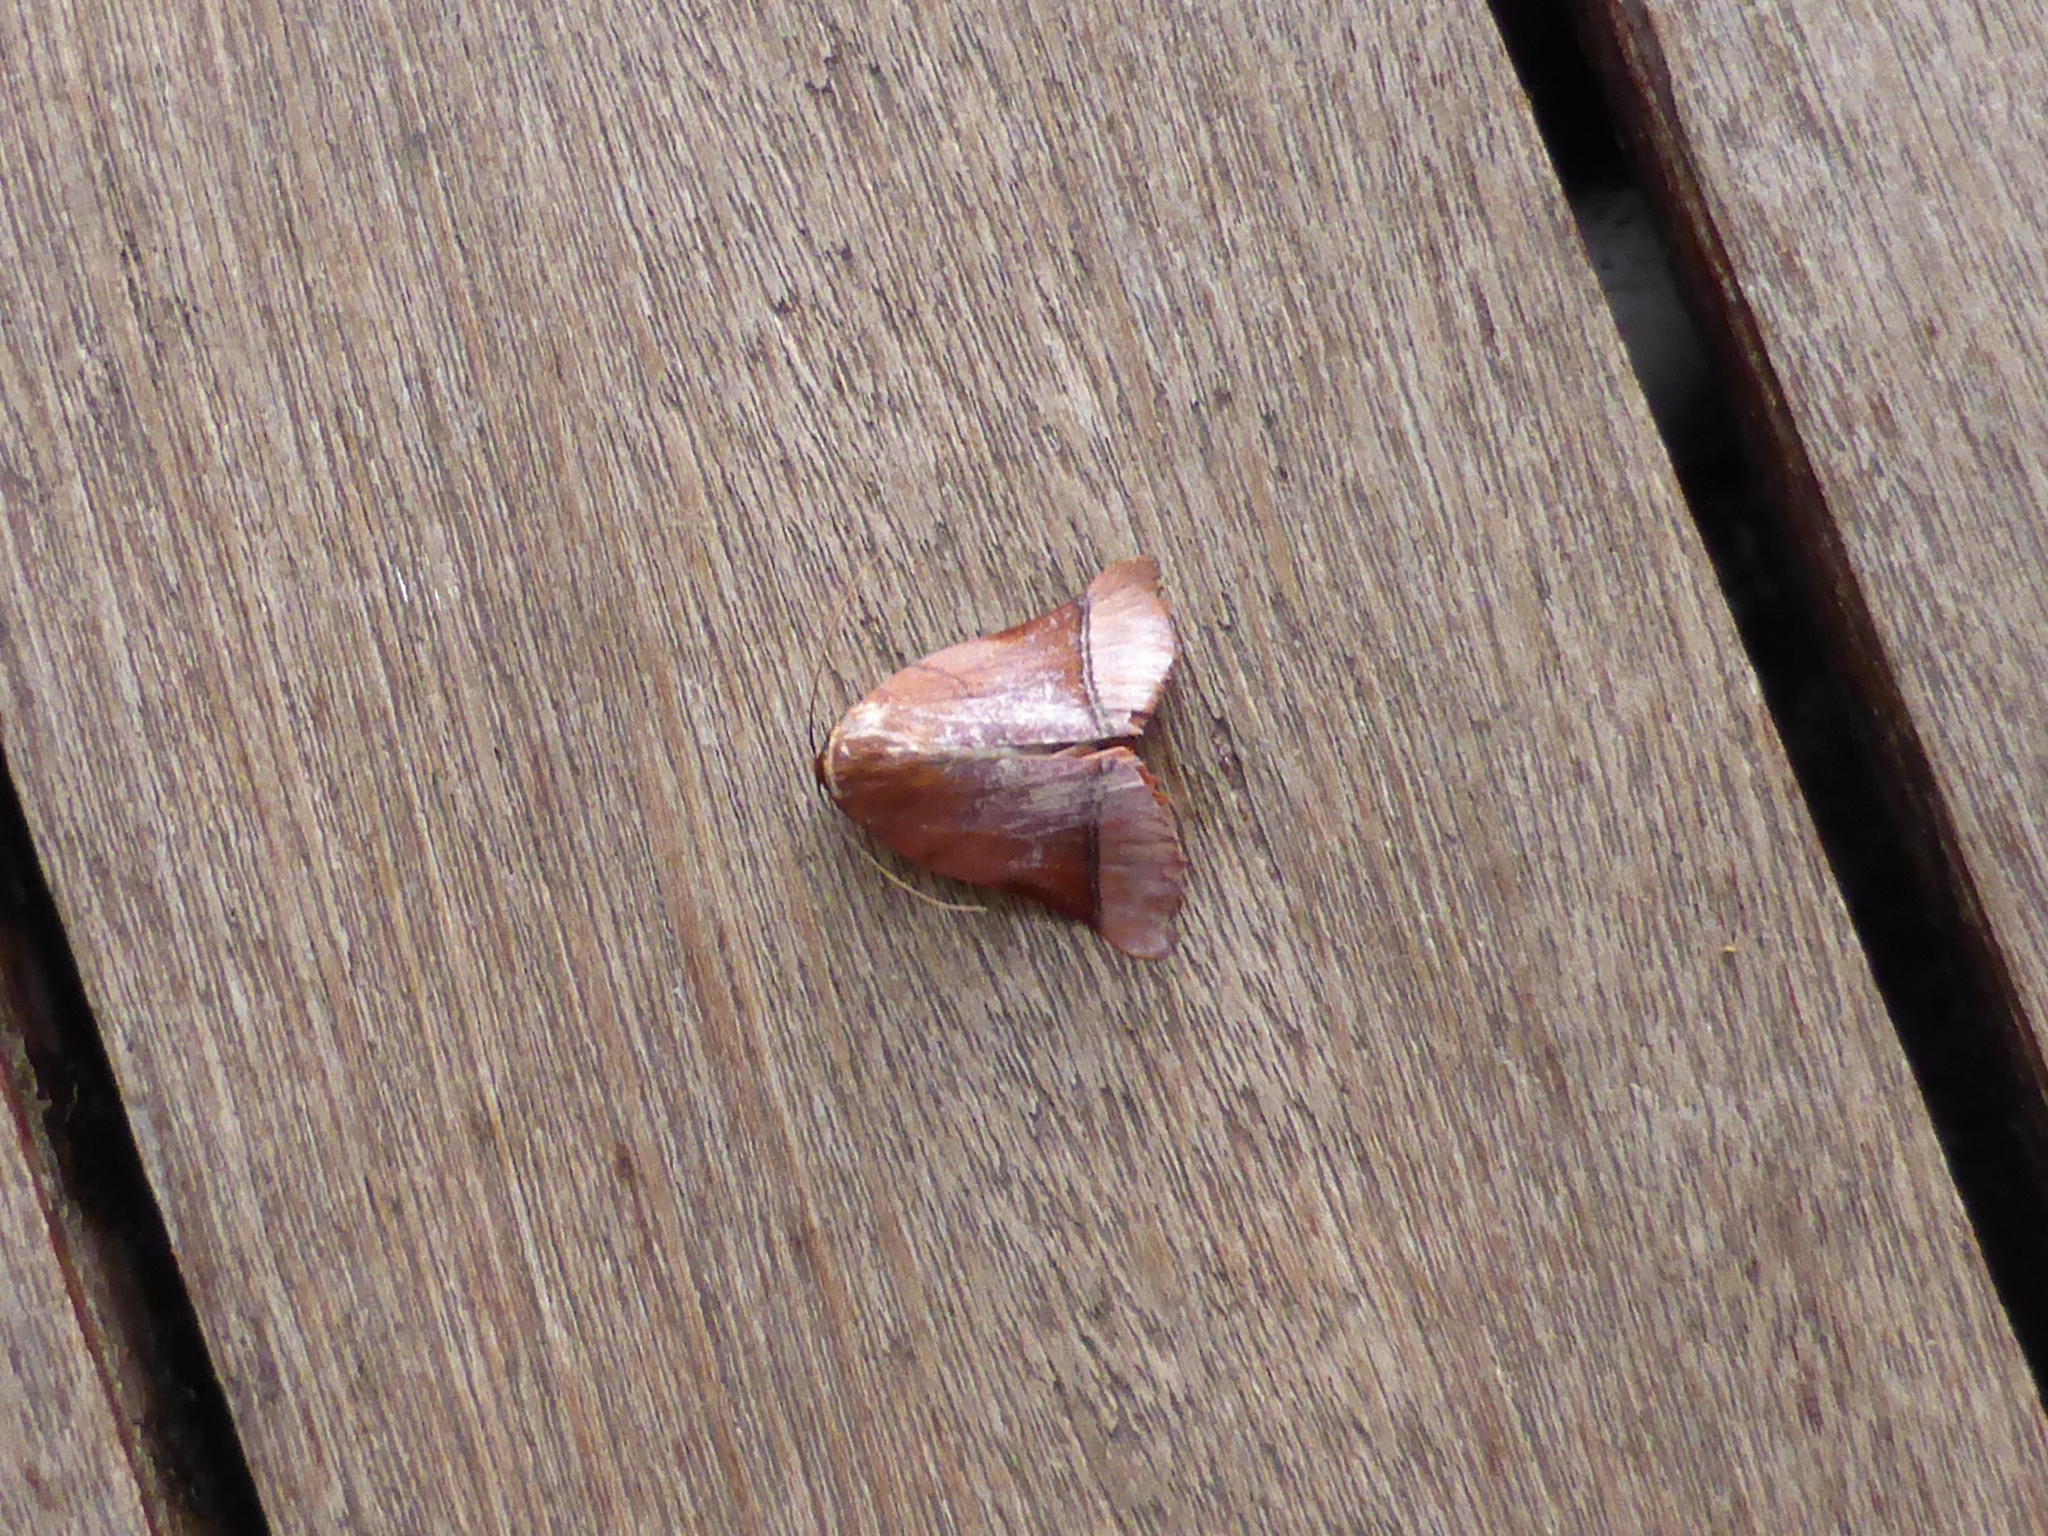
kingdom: Animalia
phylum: Arthropoda
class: Insecta
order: Lepidoptera
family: Nolidae
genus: Diehlea
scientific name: Diehlea ducalis
